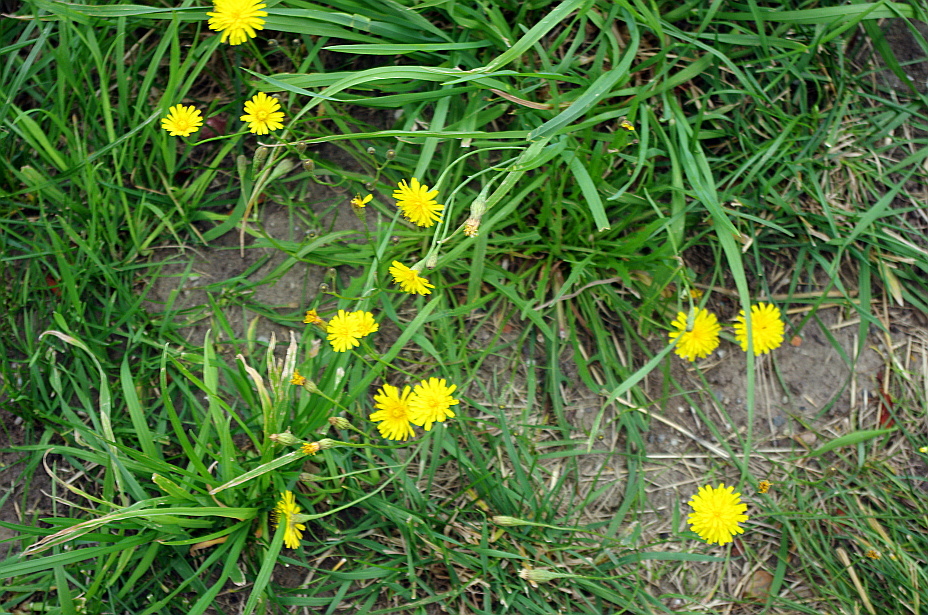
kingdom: Plantae
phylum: Tracheophyta
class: Magnoliopsida
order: Asterales
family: Asteraceae
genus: Scorzoneroides
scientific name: Scorzoneroides autumnalis
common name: Autumn hawkbit
